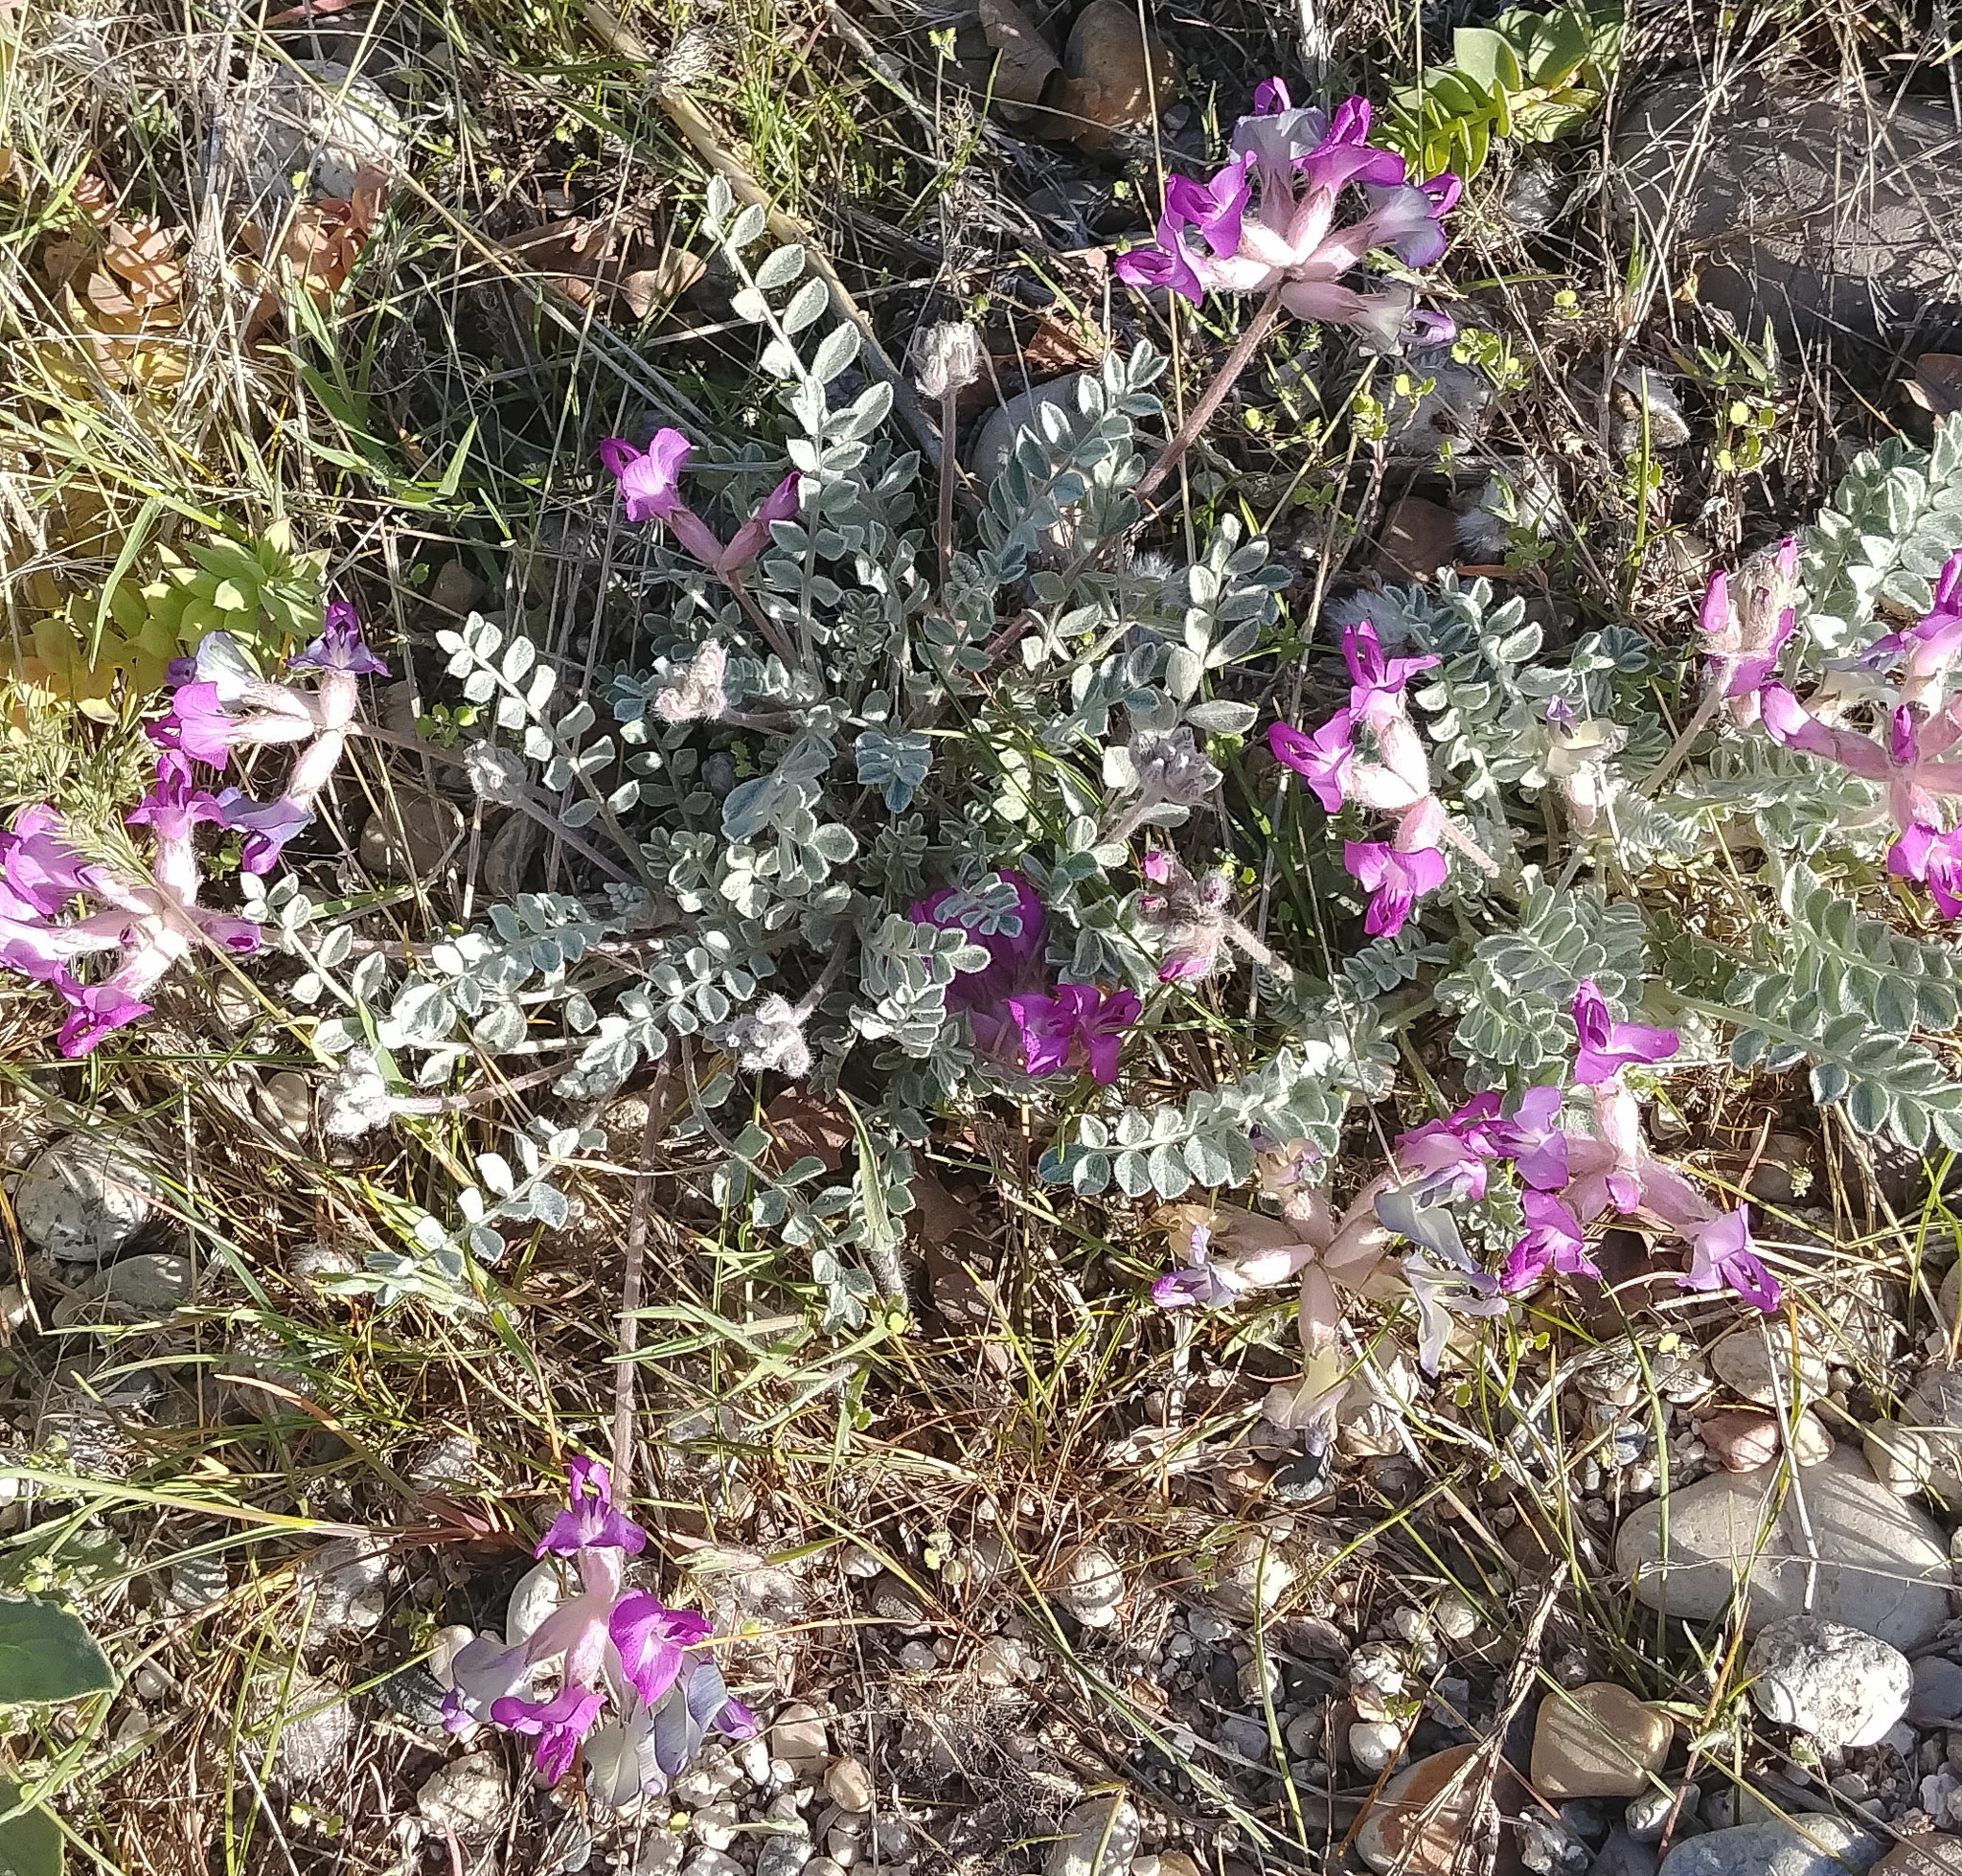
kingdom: Plantae
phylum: Tracheophyta
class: Magnoliopsida
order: Fabales
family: Fabaceae
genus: Astragalus
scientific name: Astragalus utahensis
